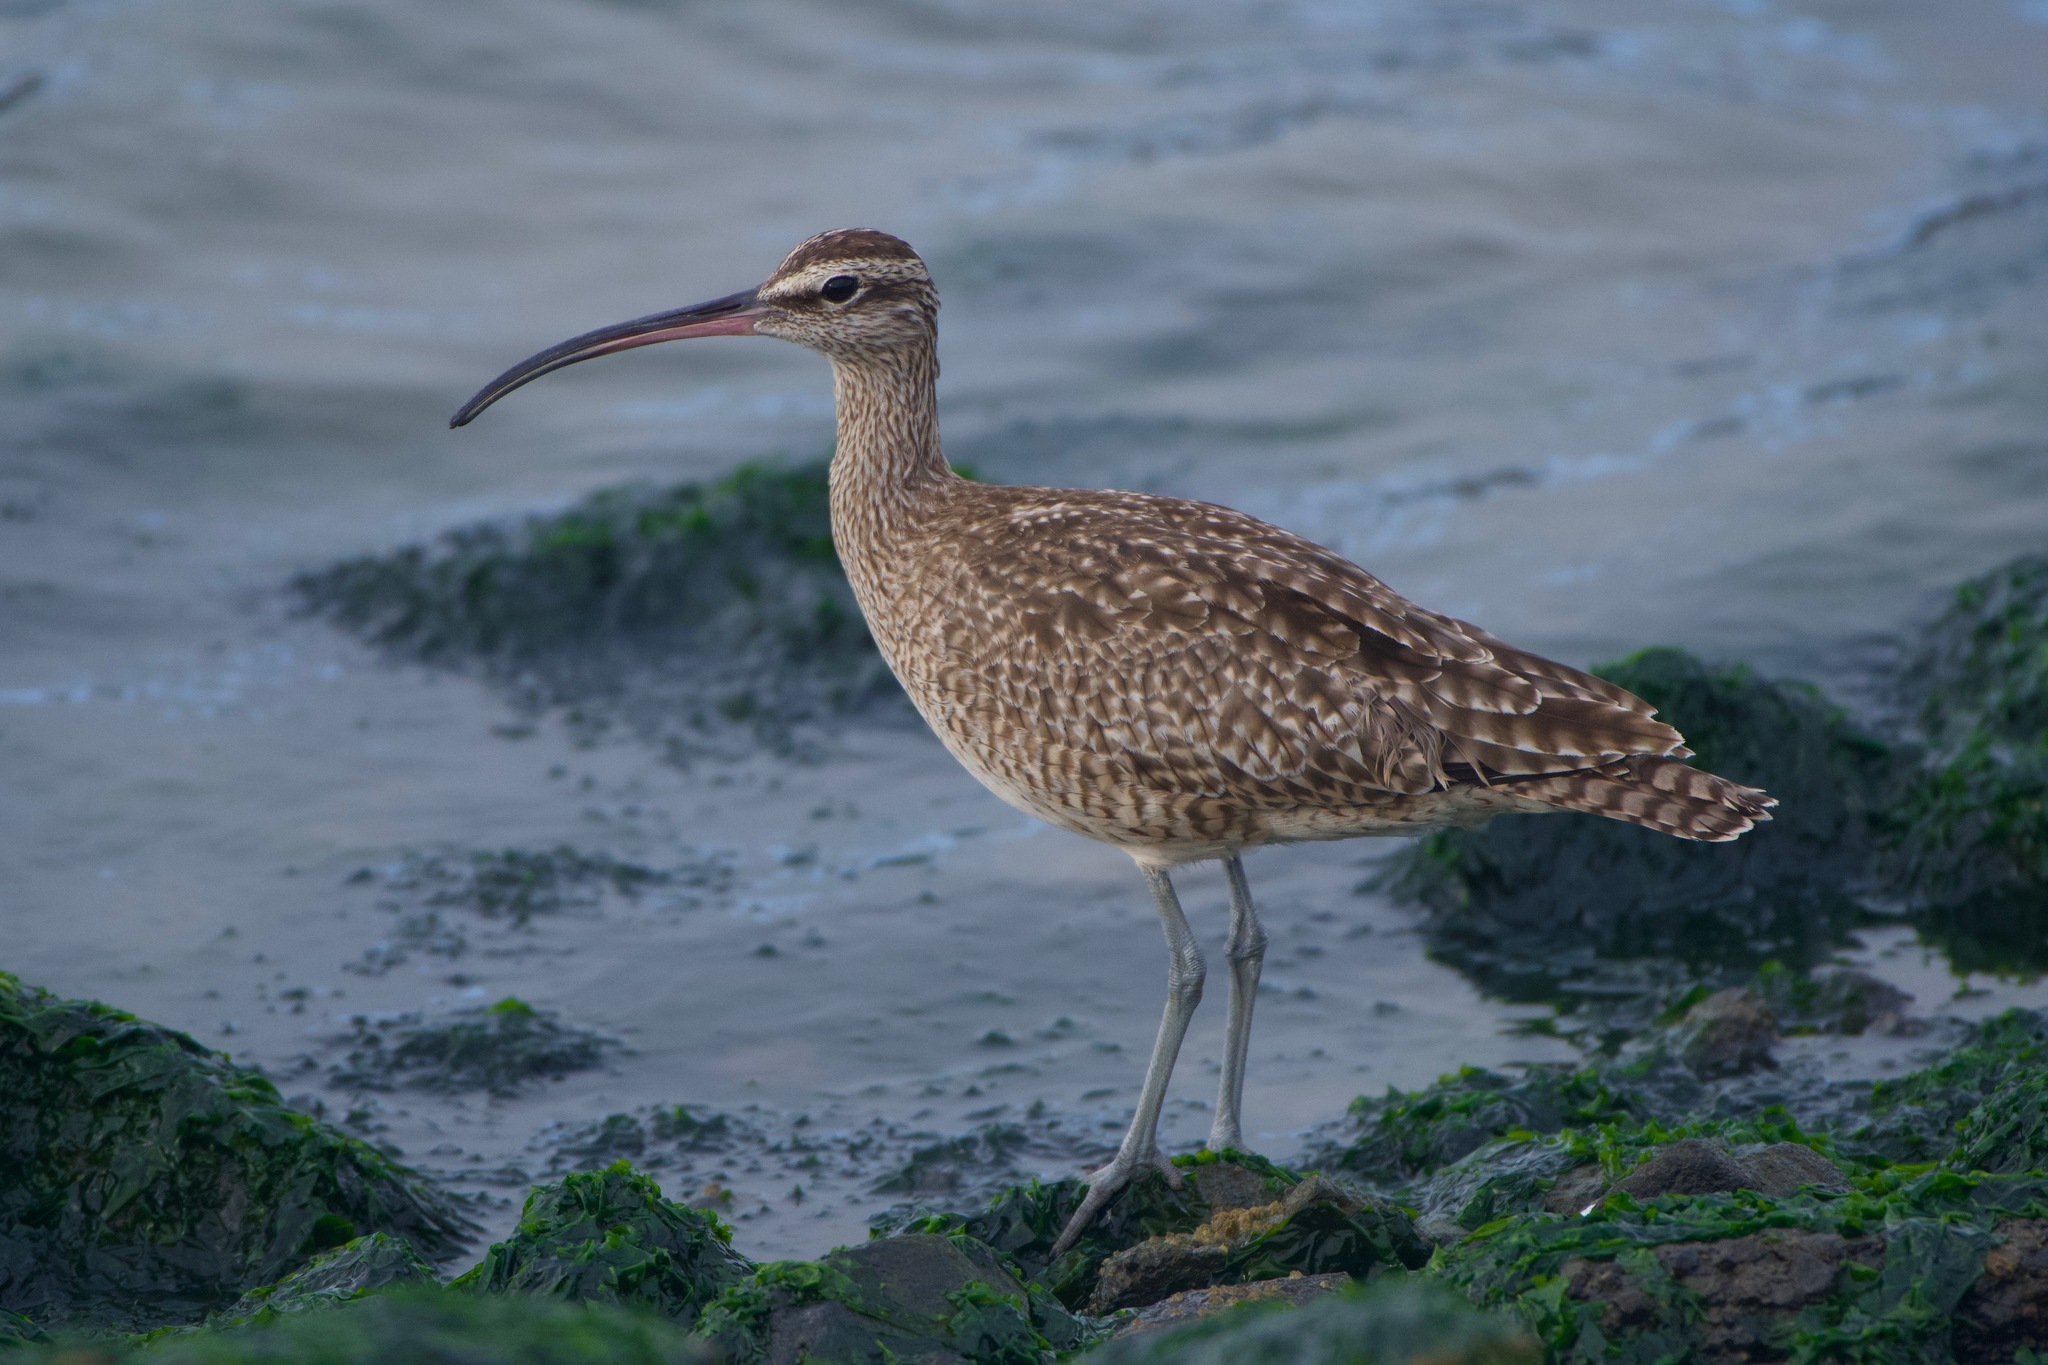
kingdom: Animalia
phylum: Chordata
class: Aves
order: Charadriiformes
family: Scolopacidae
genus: Numenius
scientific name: Numenius phaeopus
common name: Whimbrel
